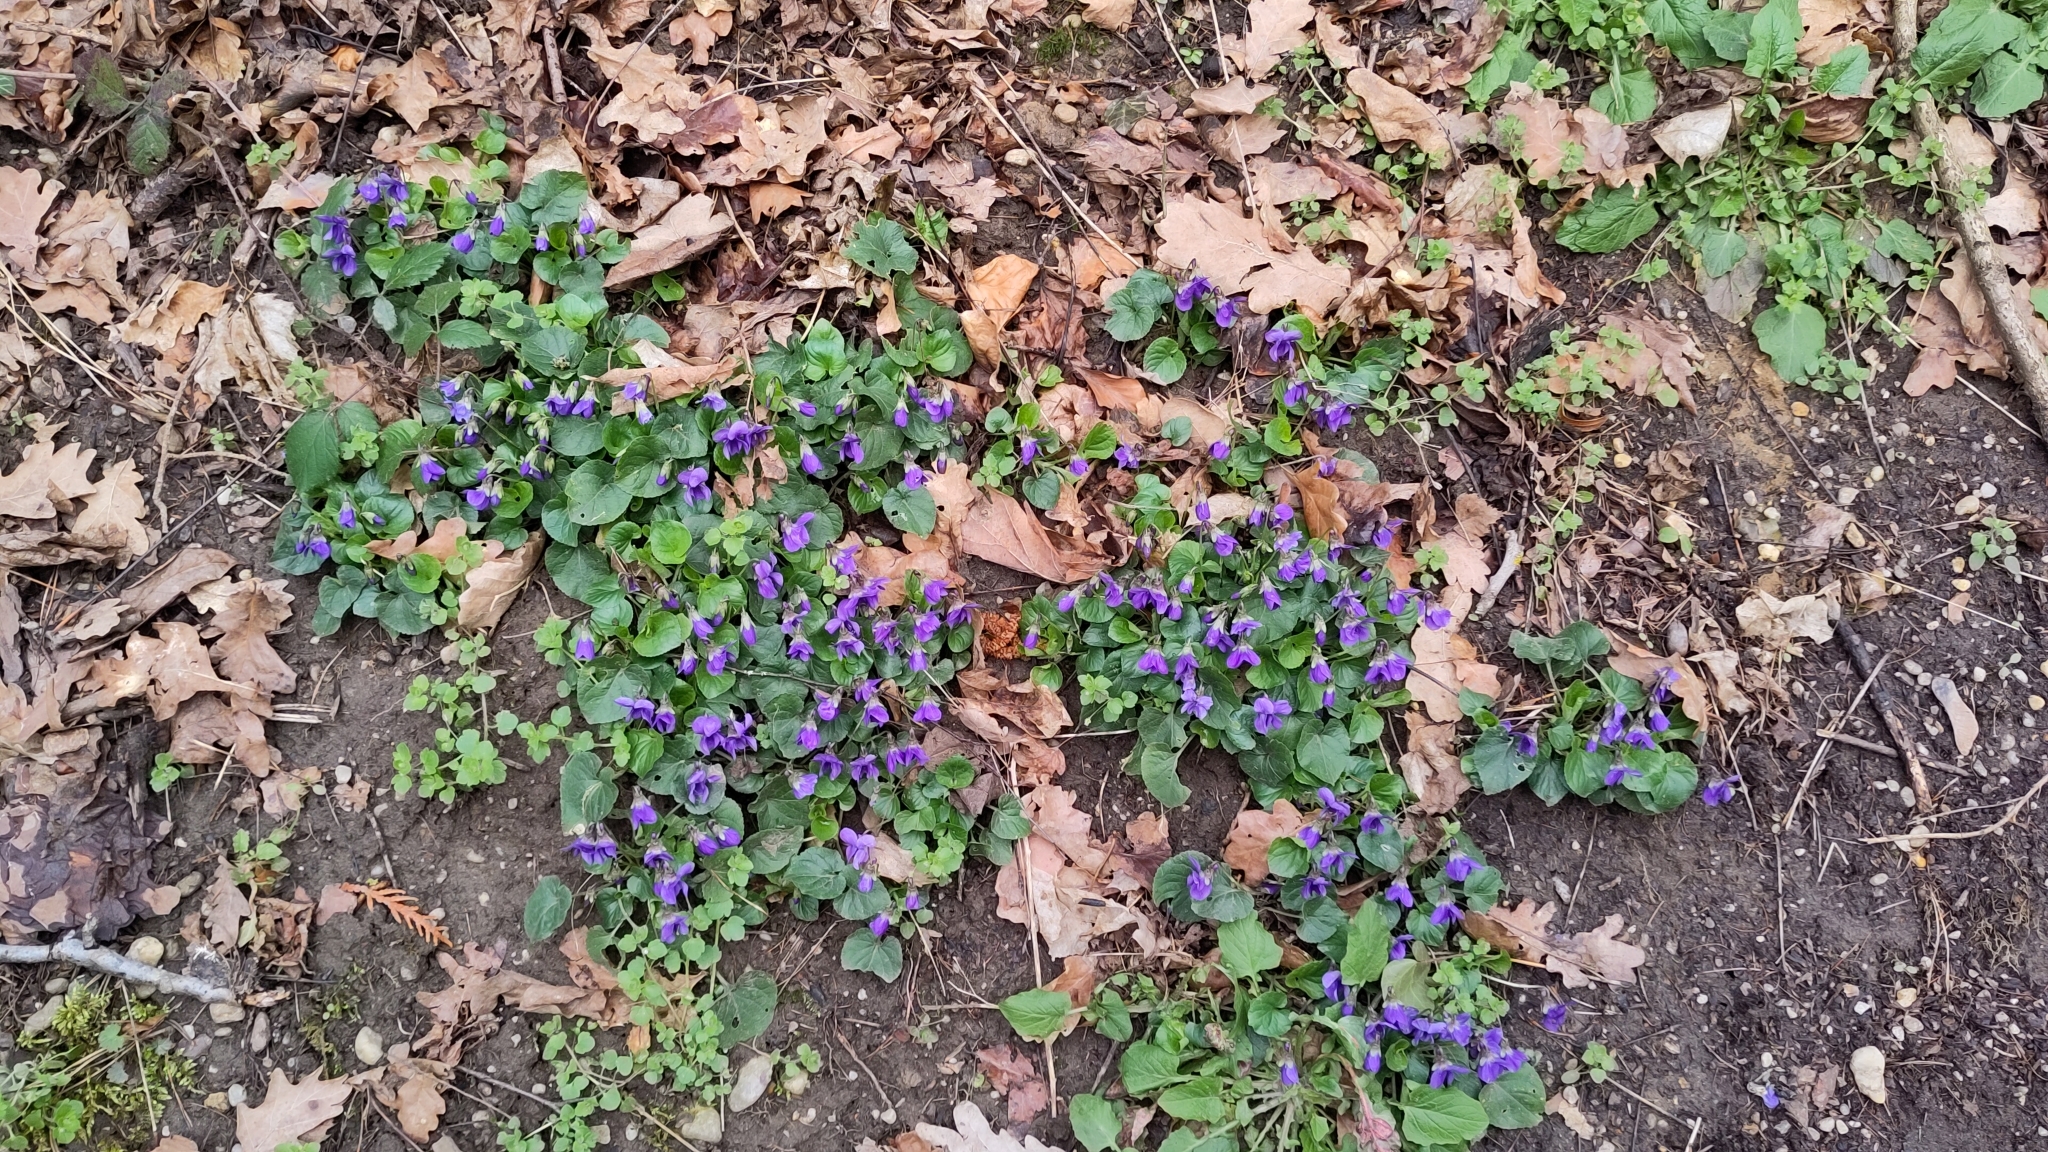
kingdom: Plantae
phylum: Tracheophyta
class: Magnoliopsida
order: Malpighiales
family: Violaceae
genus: Viola
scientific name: Viola odorata
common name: Sweet violet
